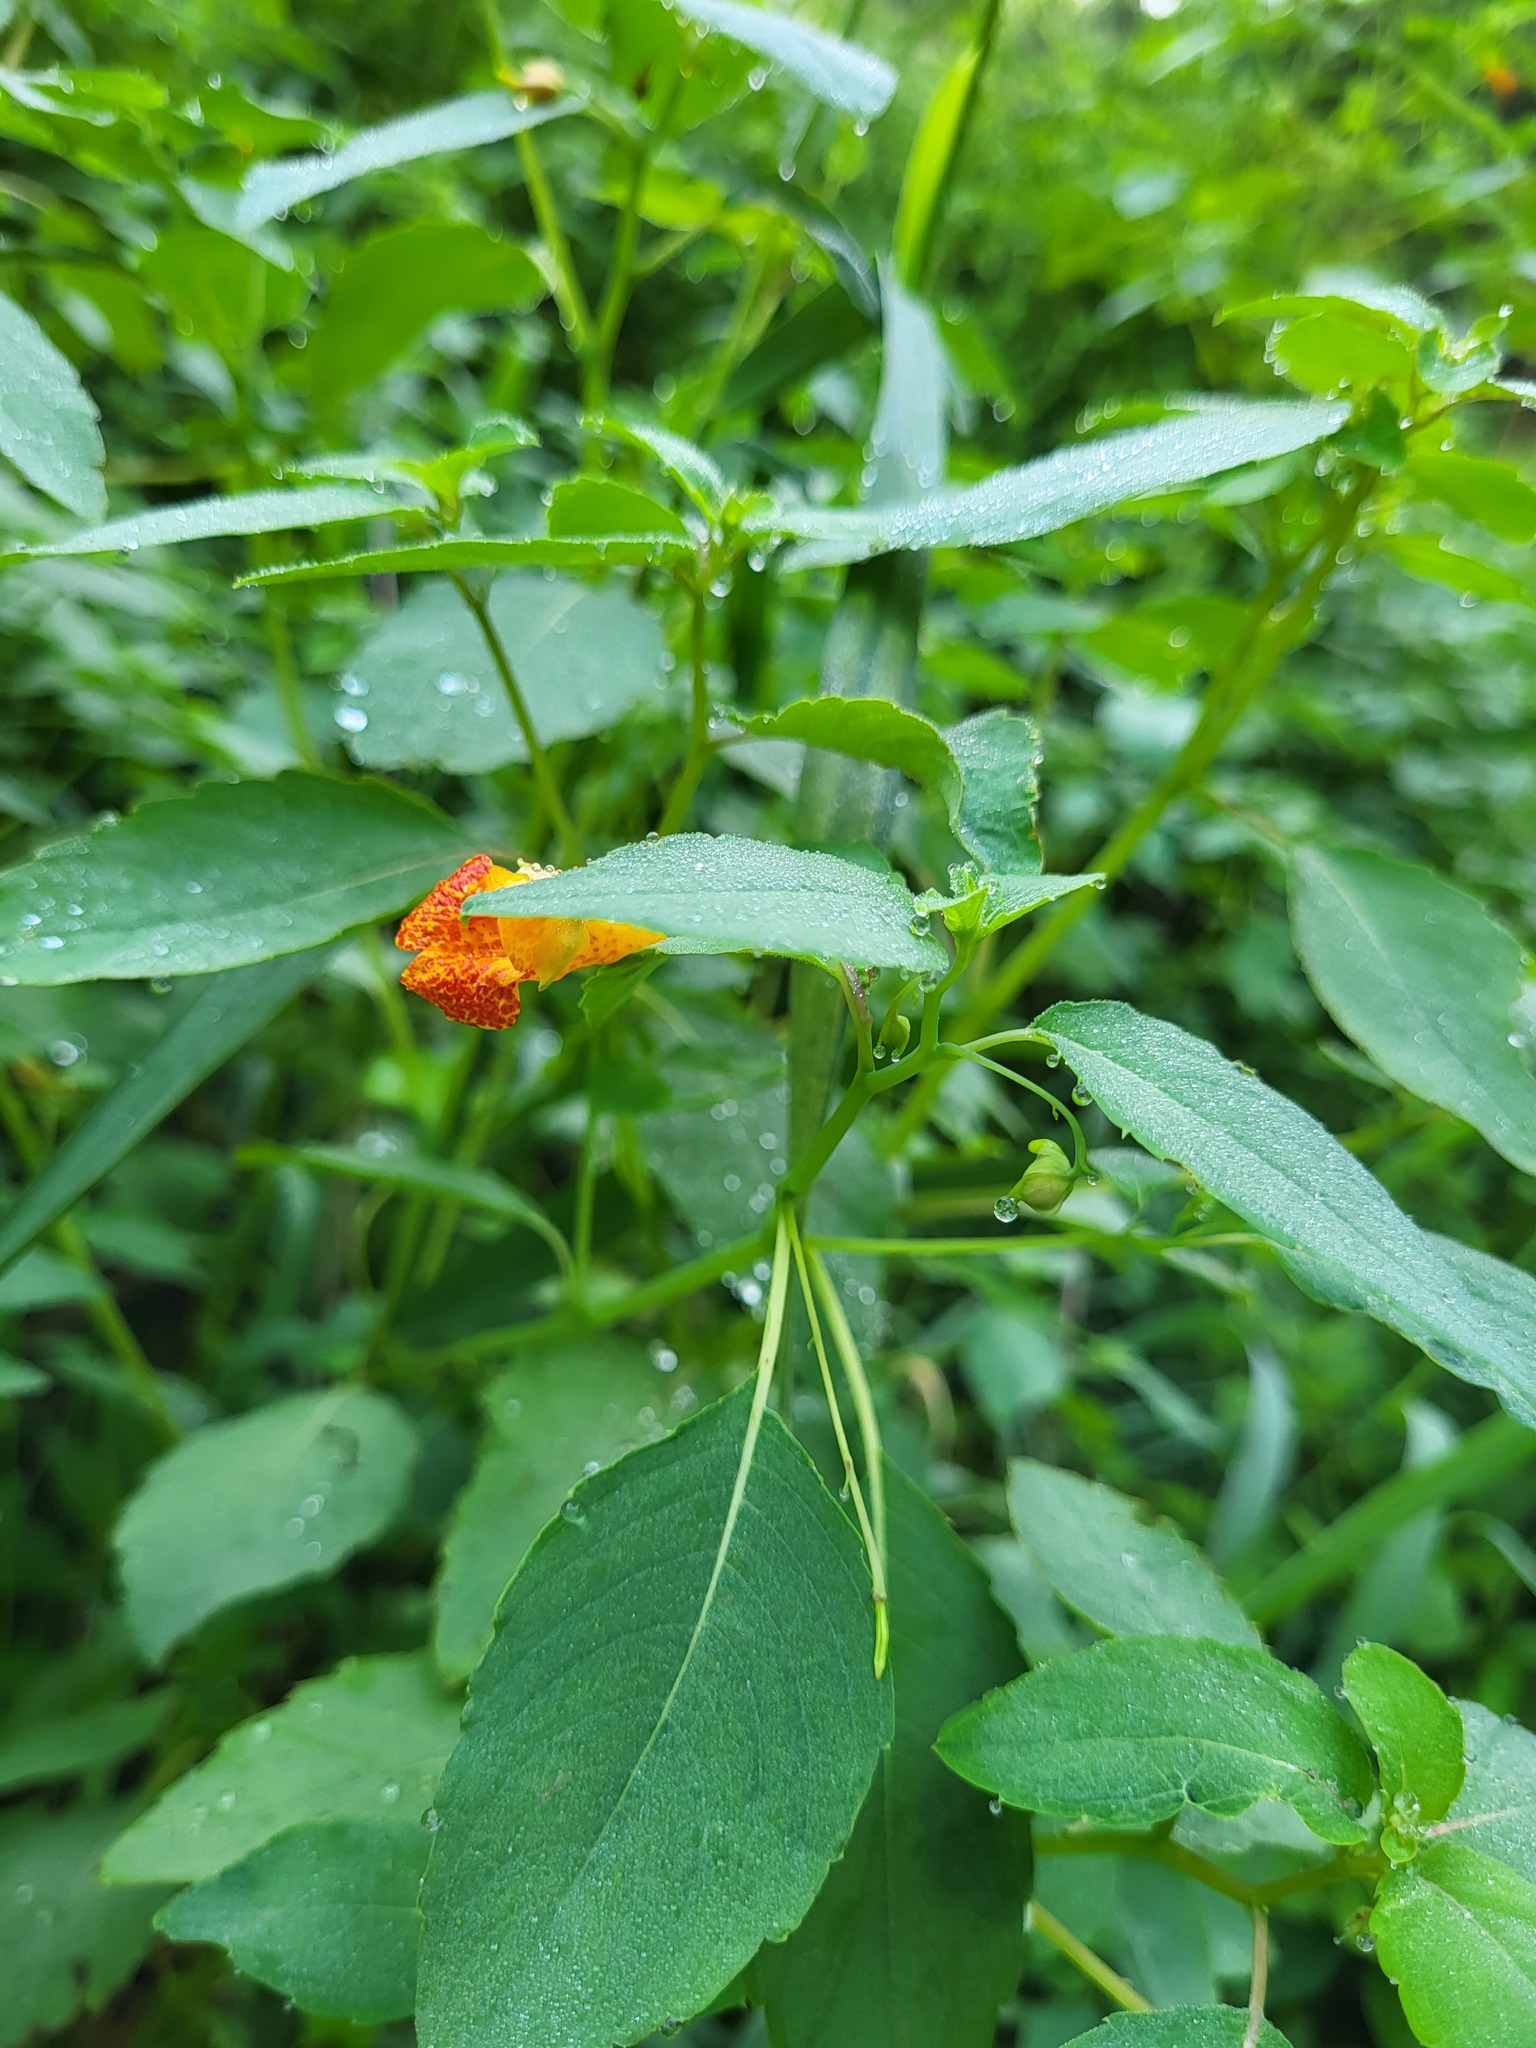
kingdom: Plantae
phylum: Tracheophyta
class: Magnoliopsida
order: Ericales
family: Balsaminaceae
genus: Impatiens
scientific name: Impatiens capensis
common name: Orange balsam
